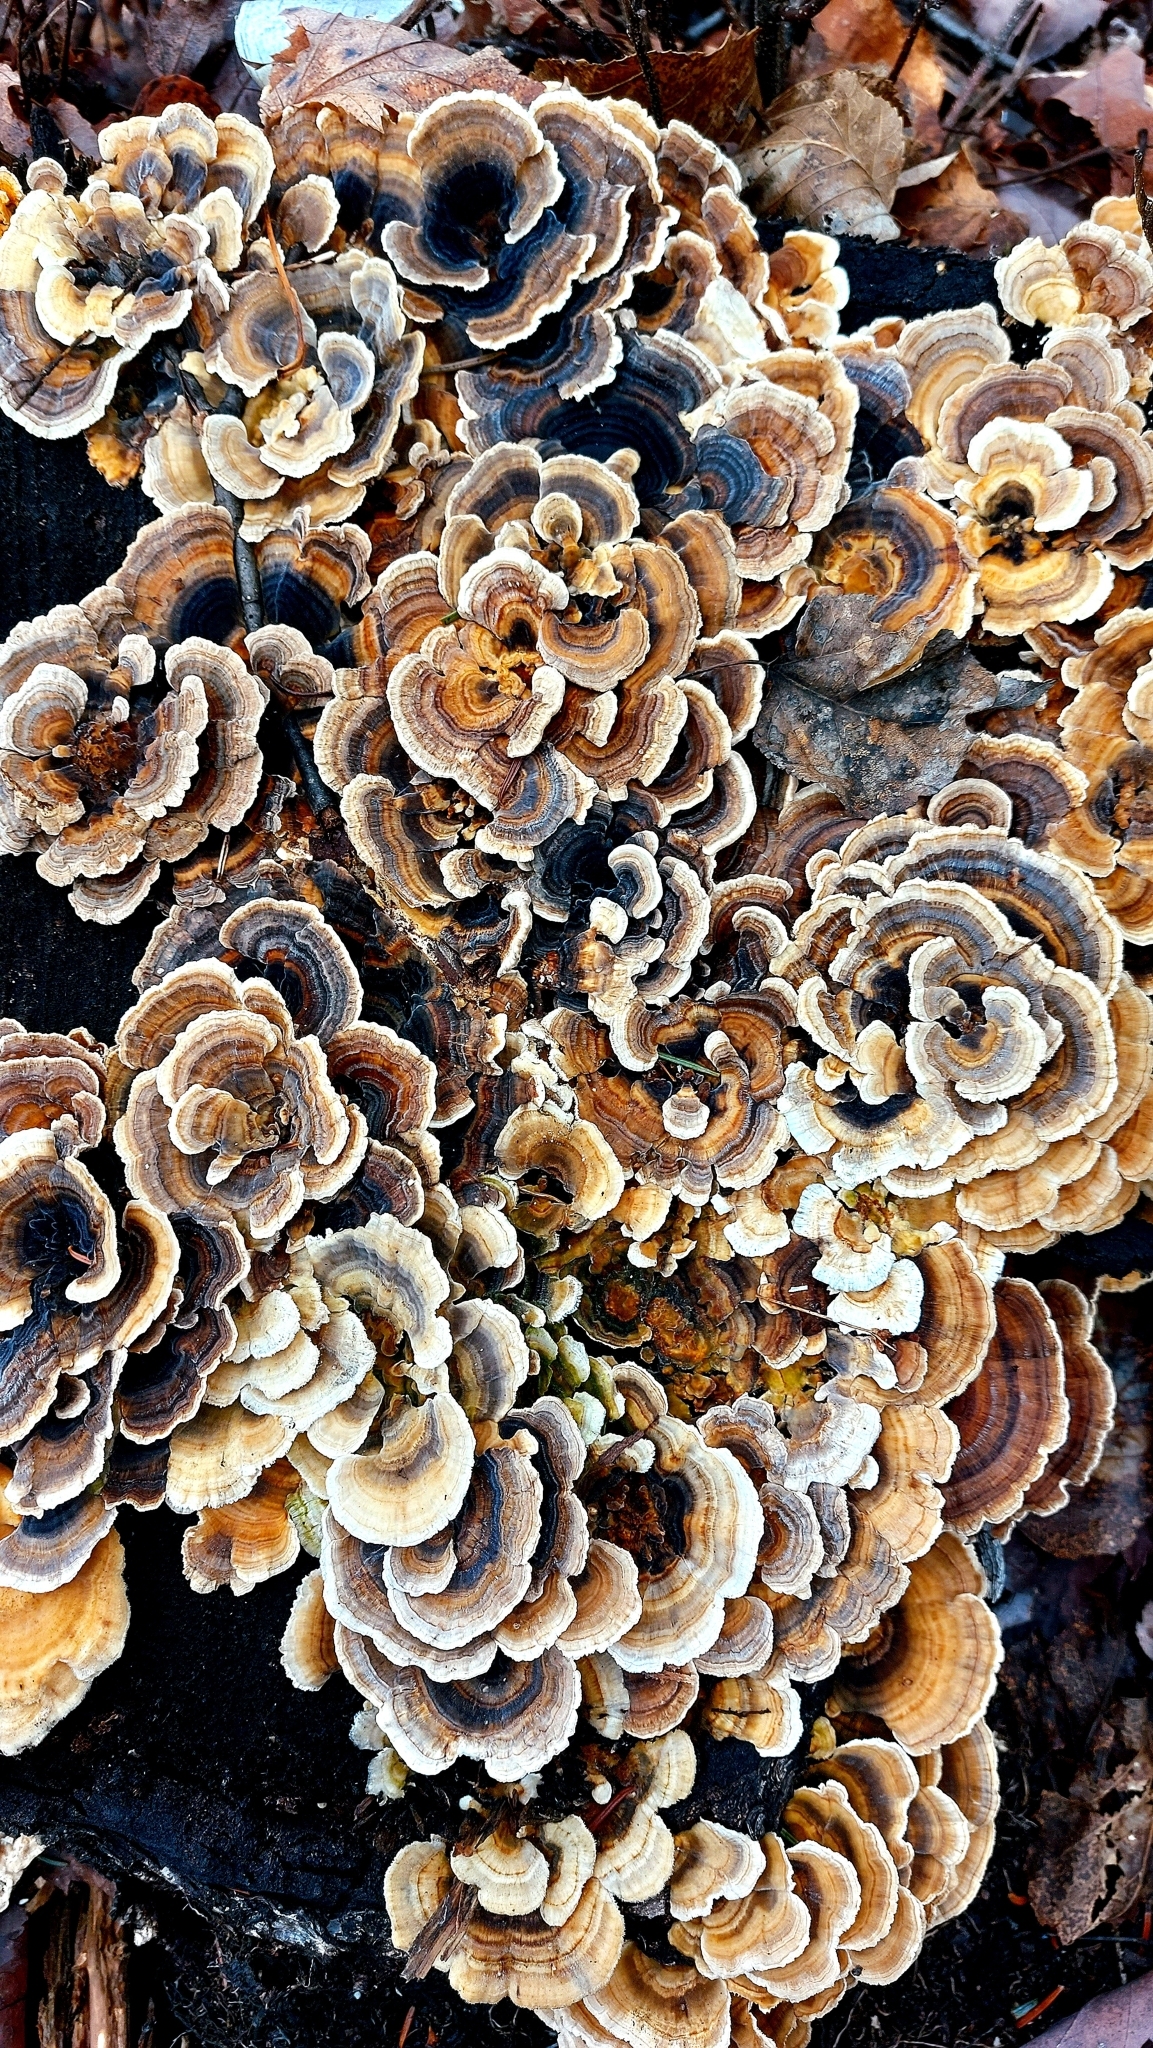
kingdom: Fungi
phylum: Basidiomycota
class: Agaricomycetes
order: Polyporales
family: Polyporaceae
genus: Trametes
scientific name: Trametes versicolor
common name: Turkeytail
